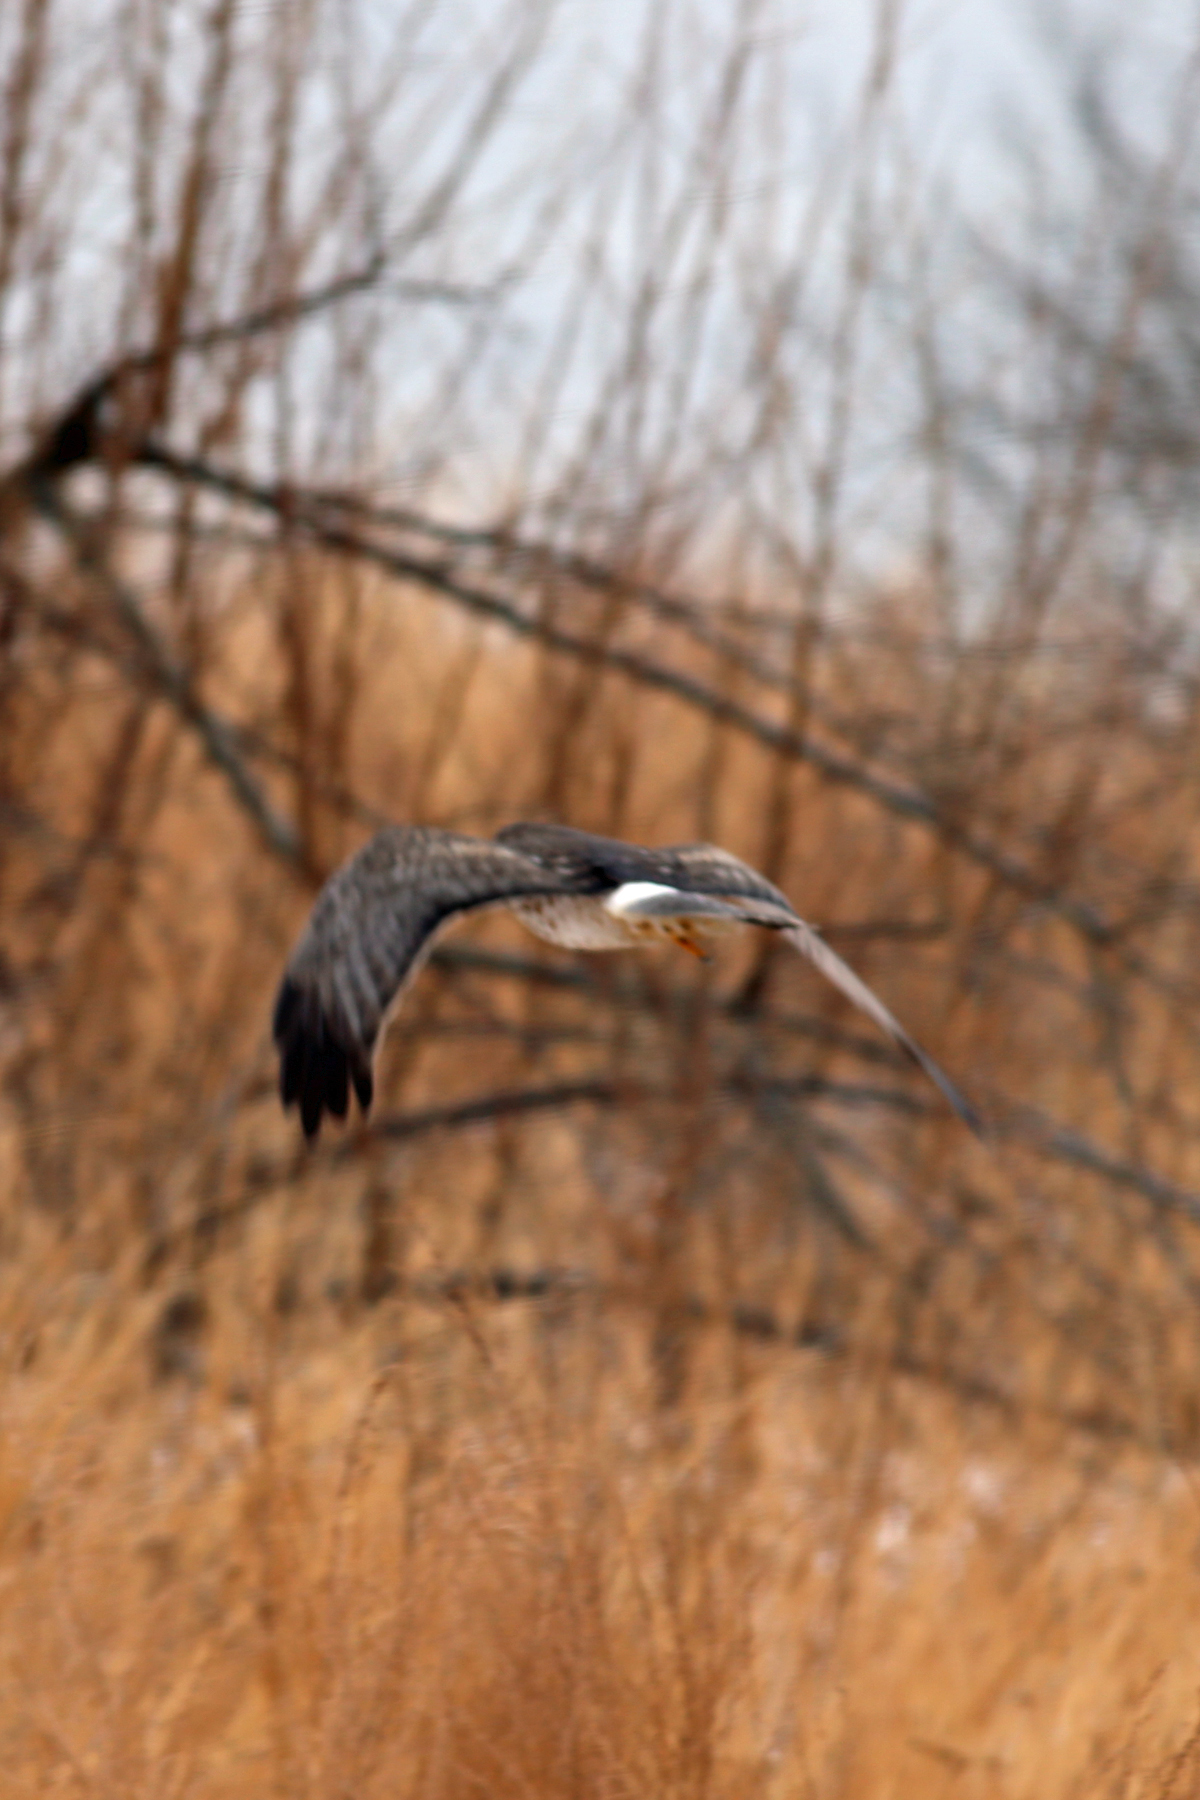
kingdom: Animalia
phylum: Chordata
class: Aves
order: Accipitriformes
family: Accipitridae
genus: Circus
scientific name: Circus cyaneus
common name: Hen harrier
